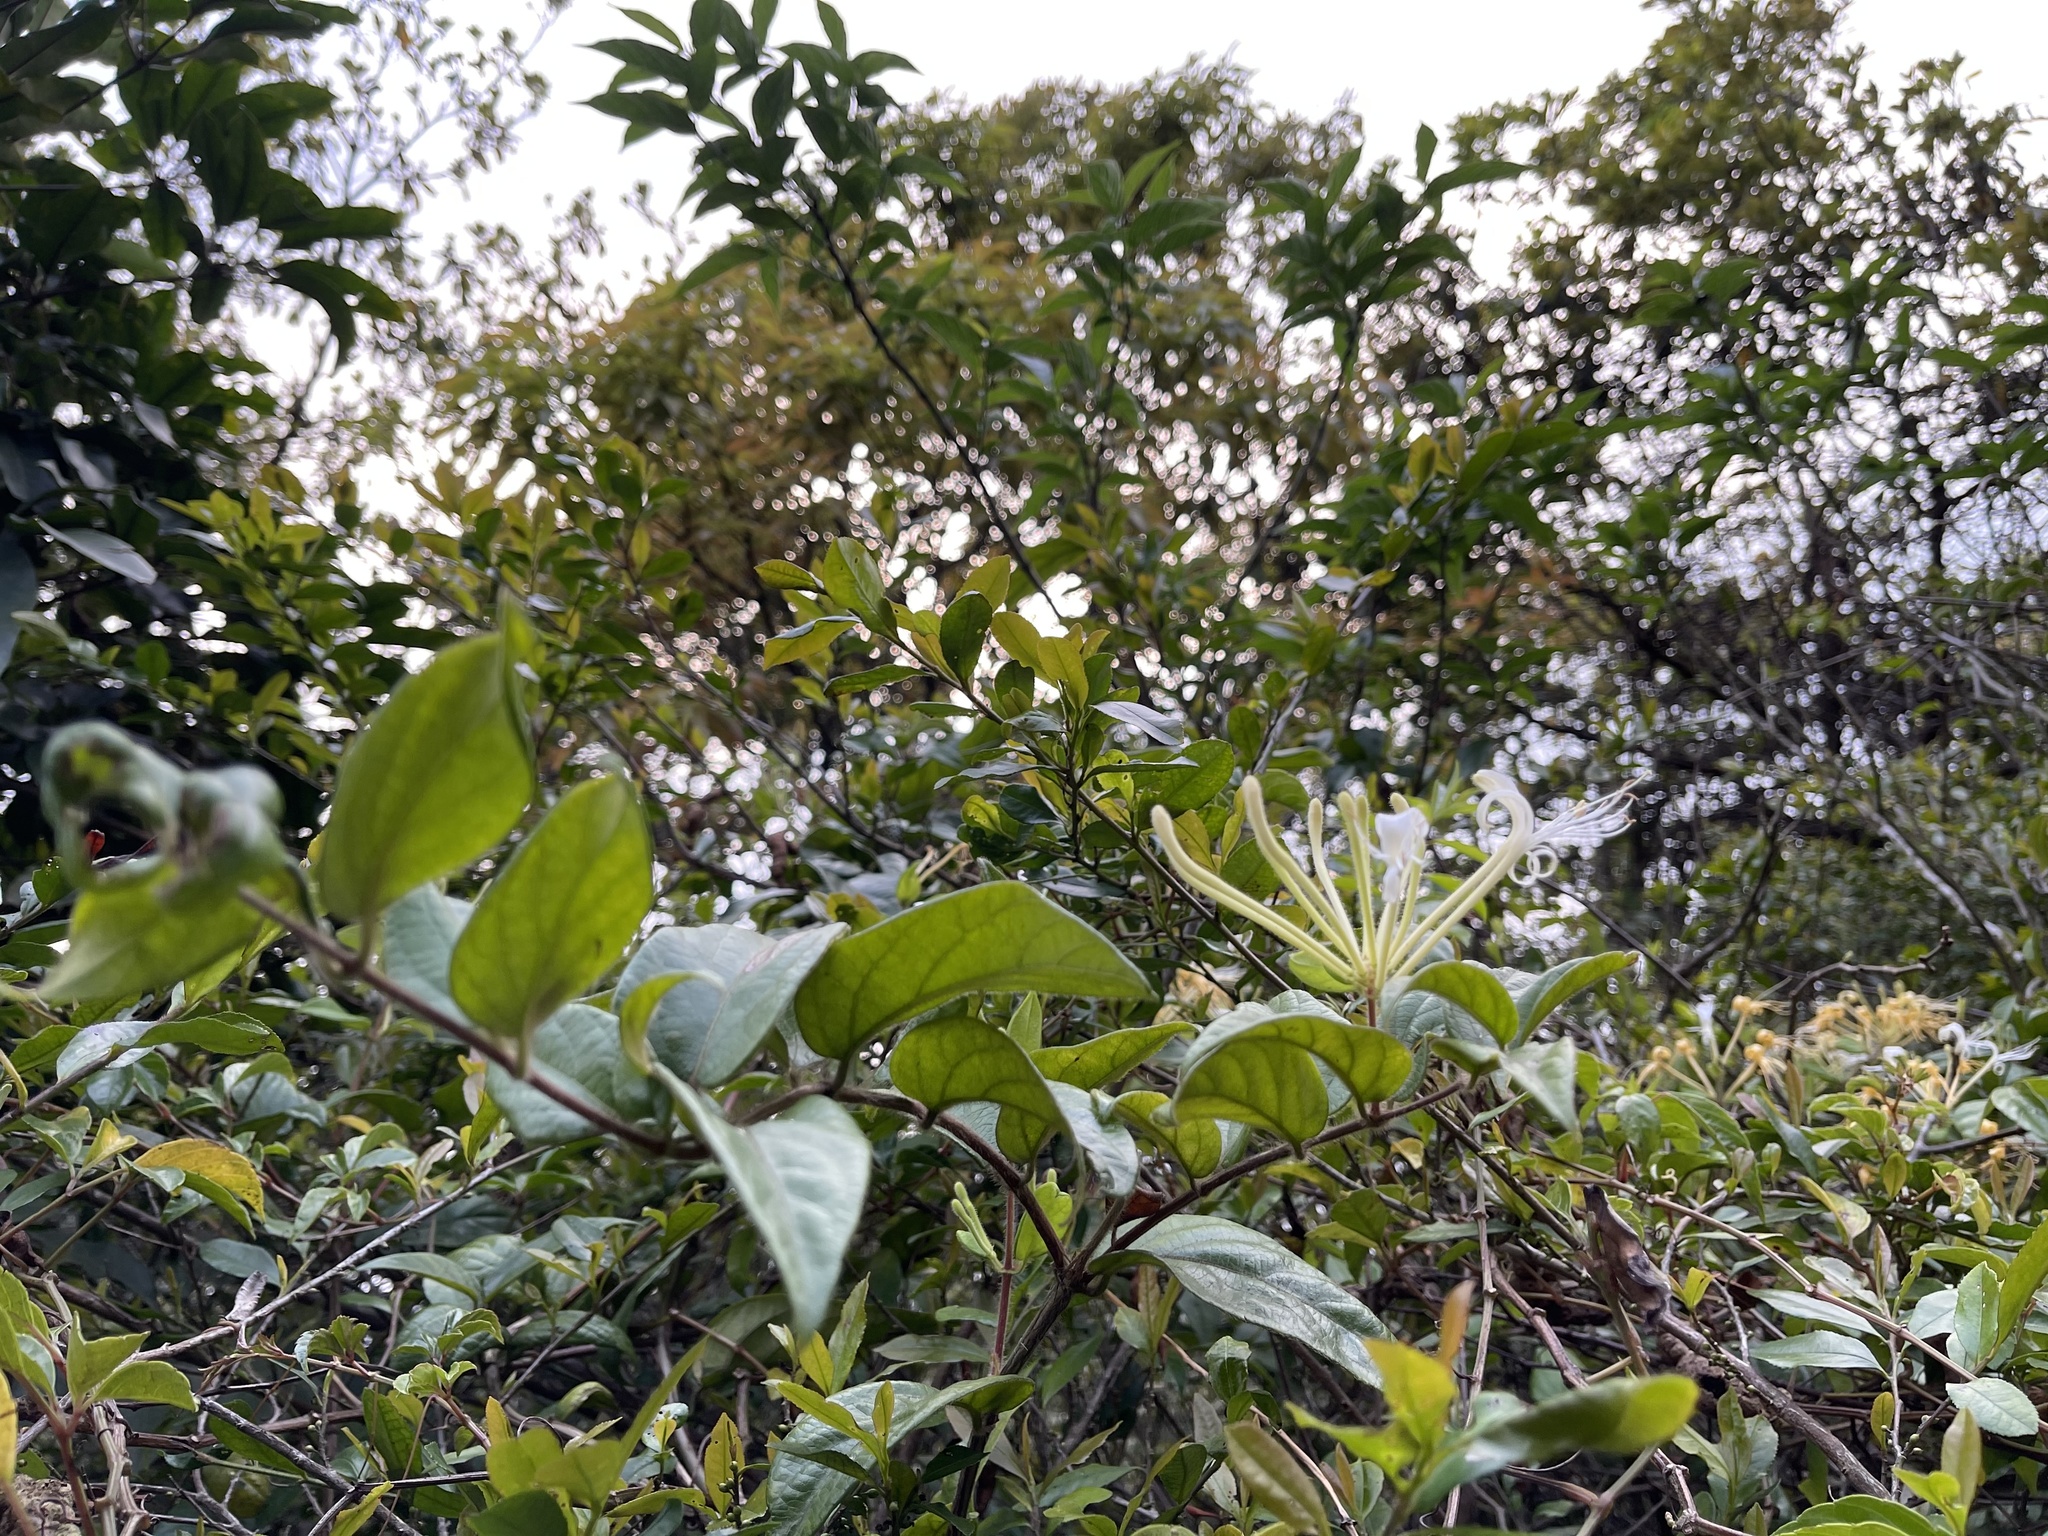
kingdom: Plantae
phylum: Tracheophyta
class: Magnoliopsida
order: Dipsacales
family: Caprifoliaceae
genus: Lonicera
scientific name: Lonicera macrantha
